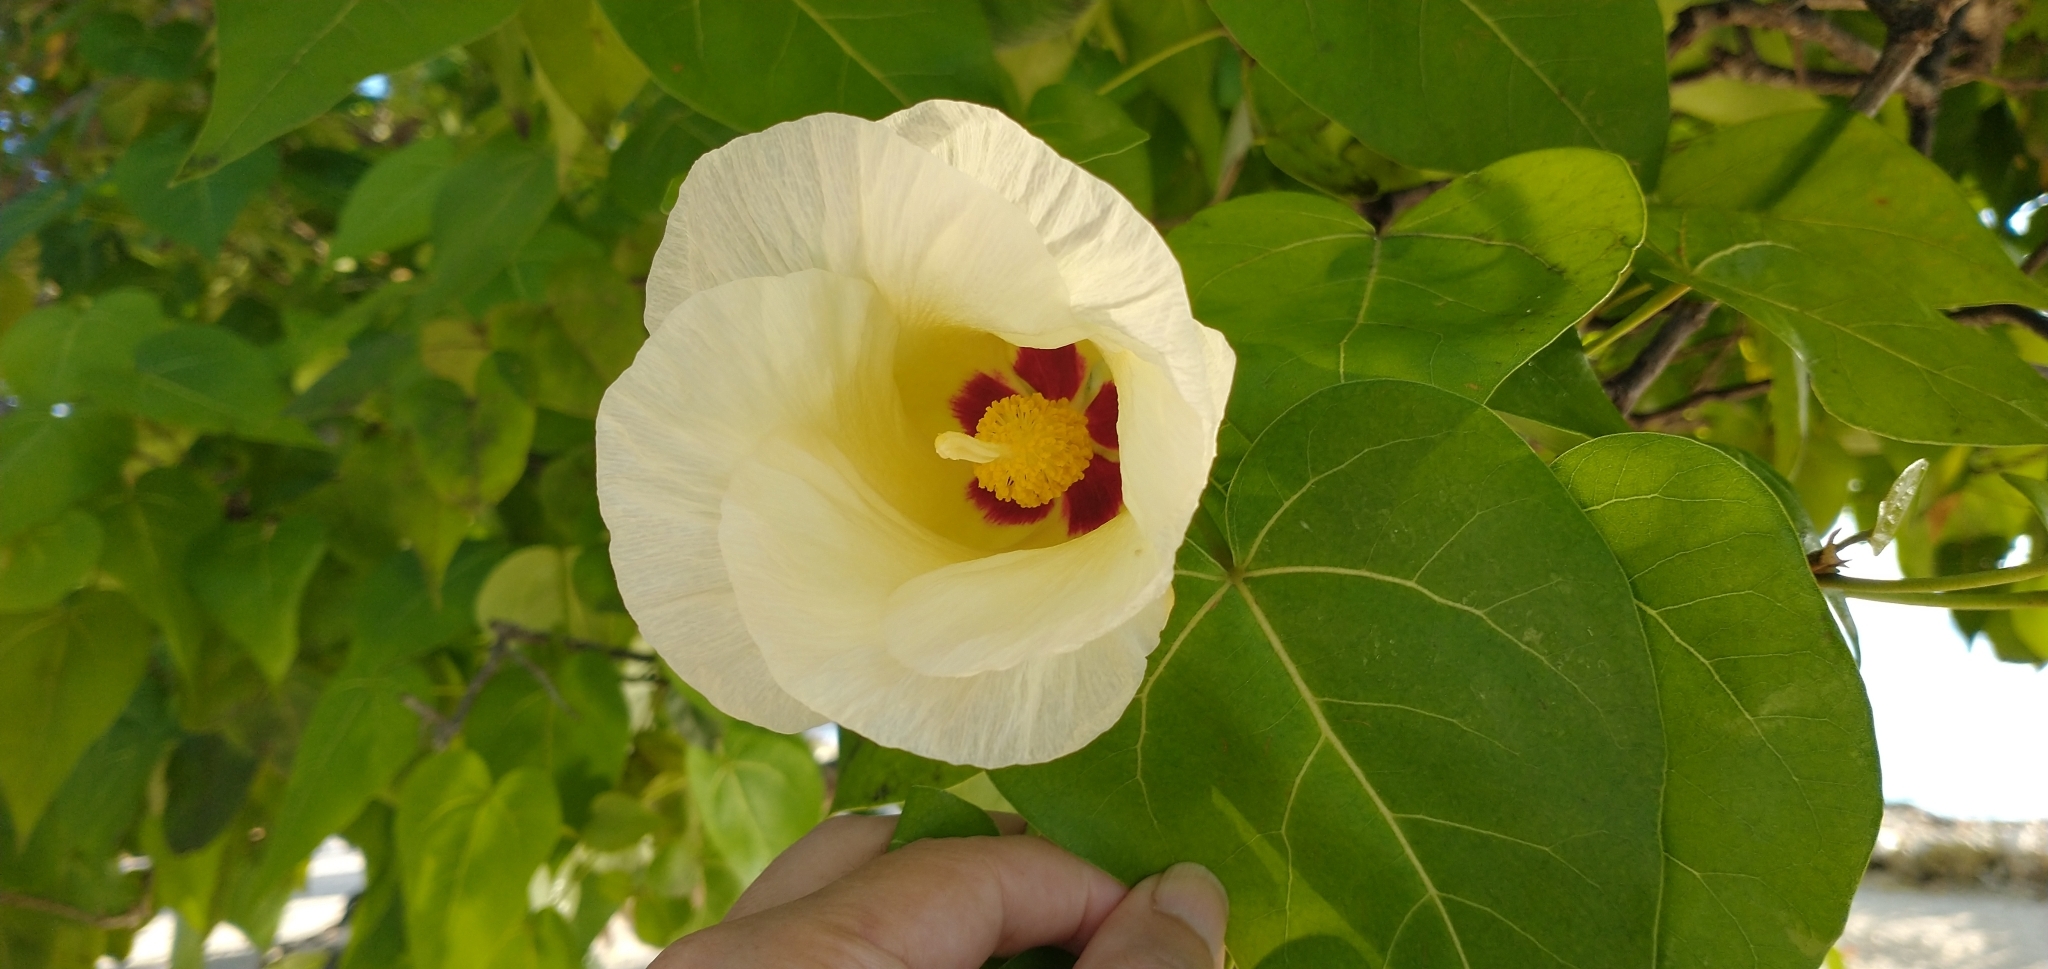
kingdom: Plantae
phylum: Tracheophyta
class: Magnoliopsida
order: Malvales
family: Malvaceae
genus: Thespesia
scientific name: Thespesia populnea
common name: Seaside mahoe
